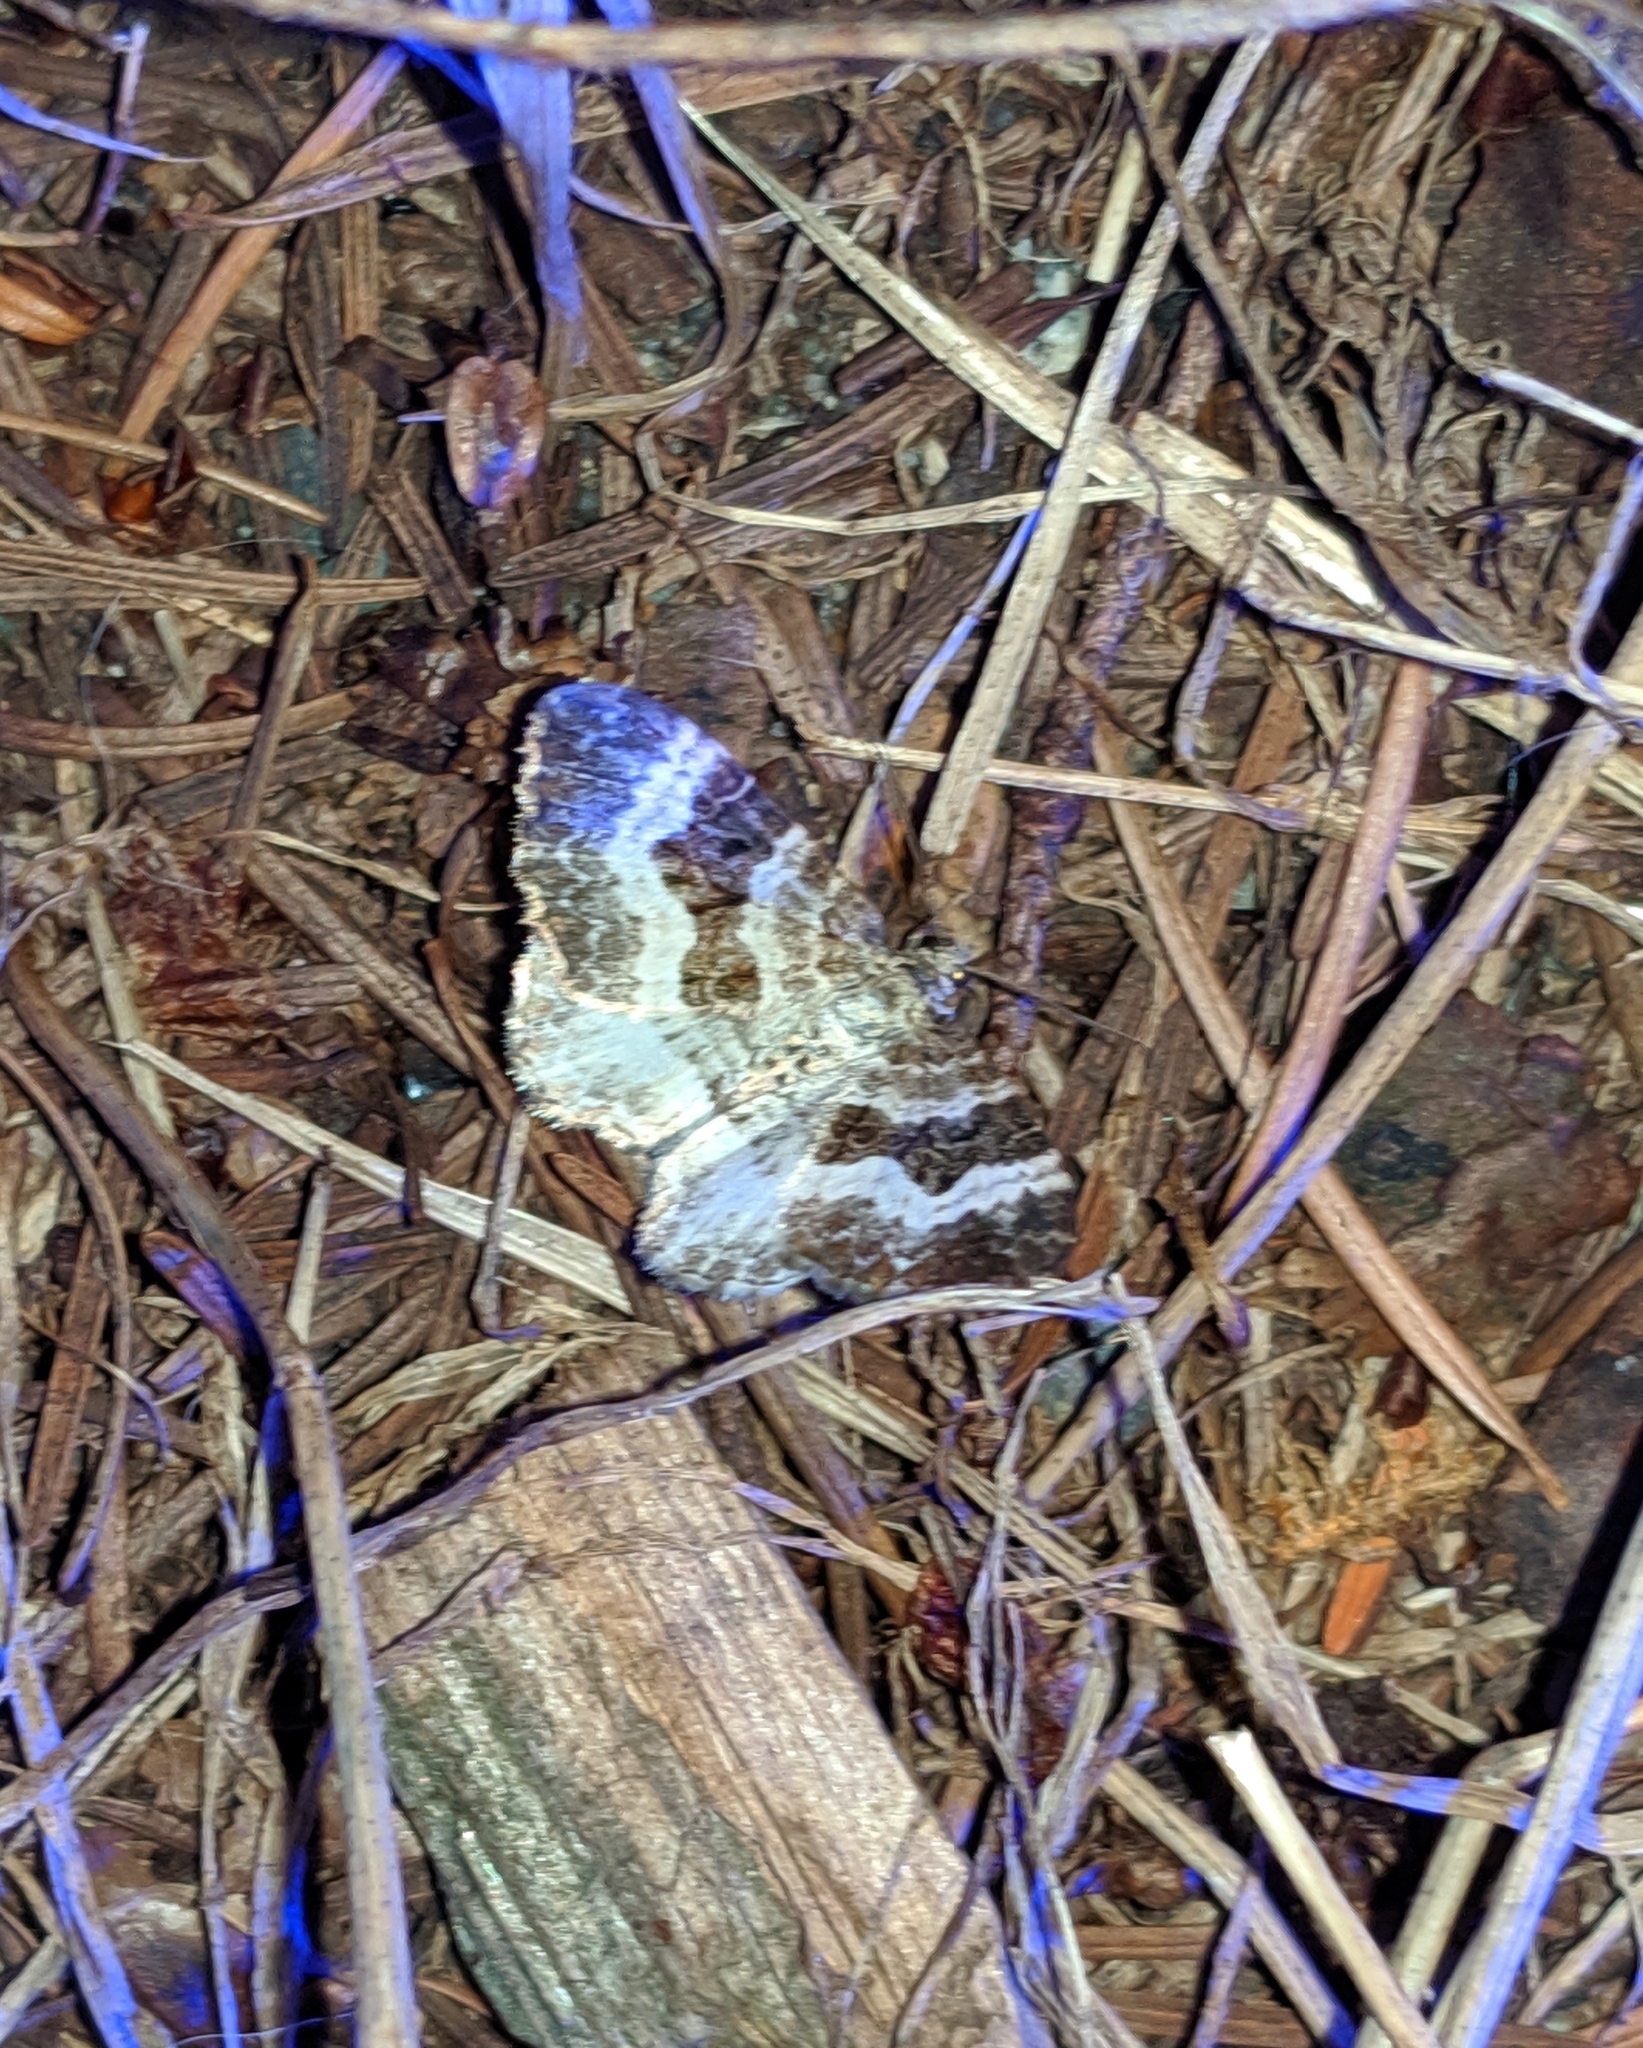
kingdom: Animalia
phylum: Arthropoda
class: Insecta
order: Lepidoptera
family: Geometridae
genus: Epirrhoe
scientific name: Epirrhoe alternata
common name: Common carpet
